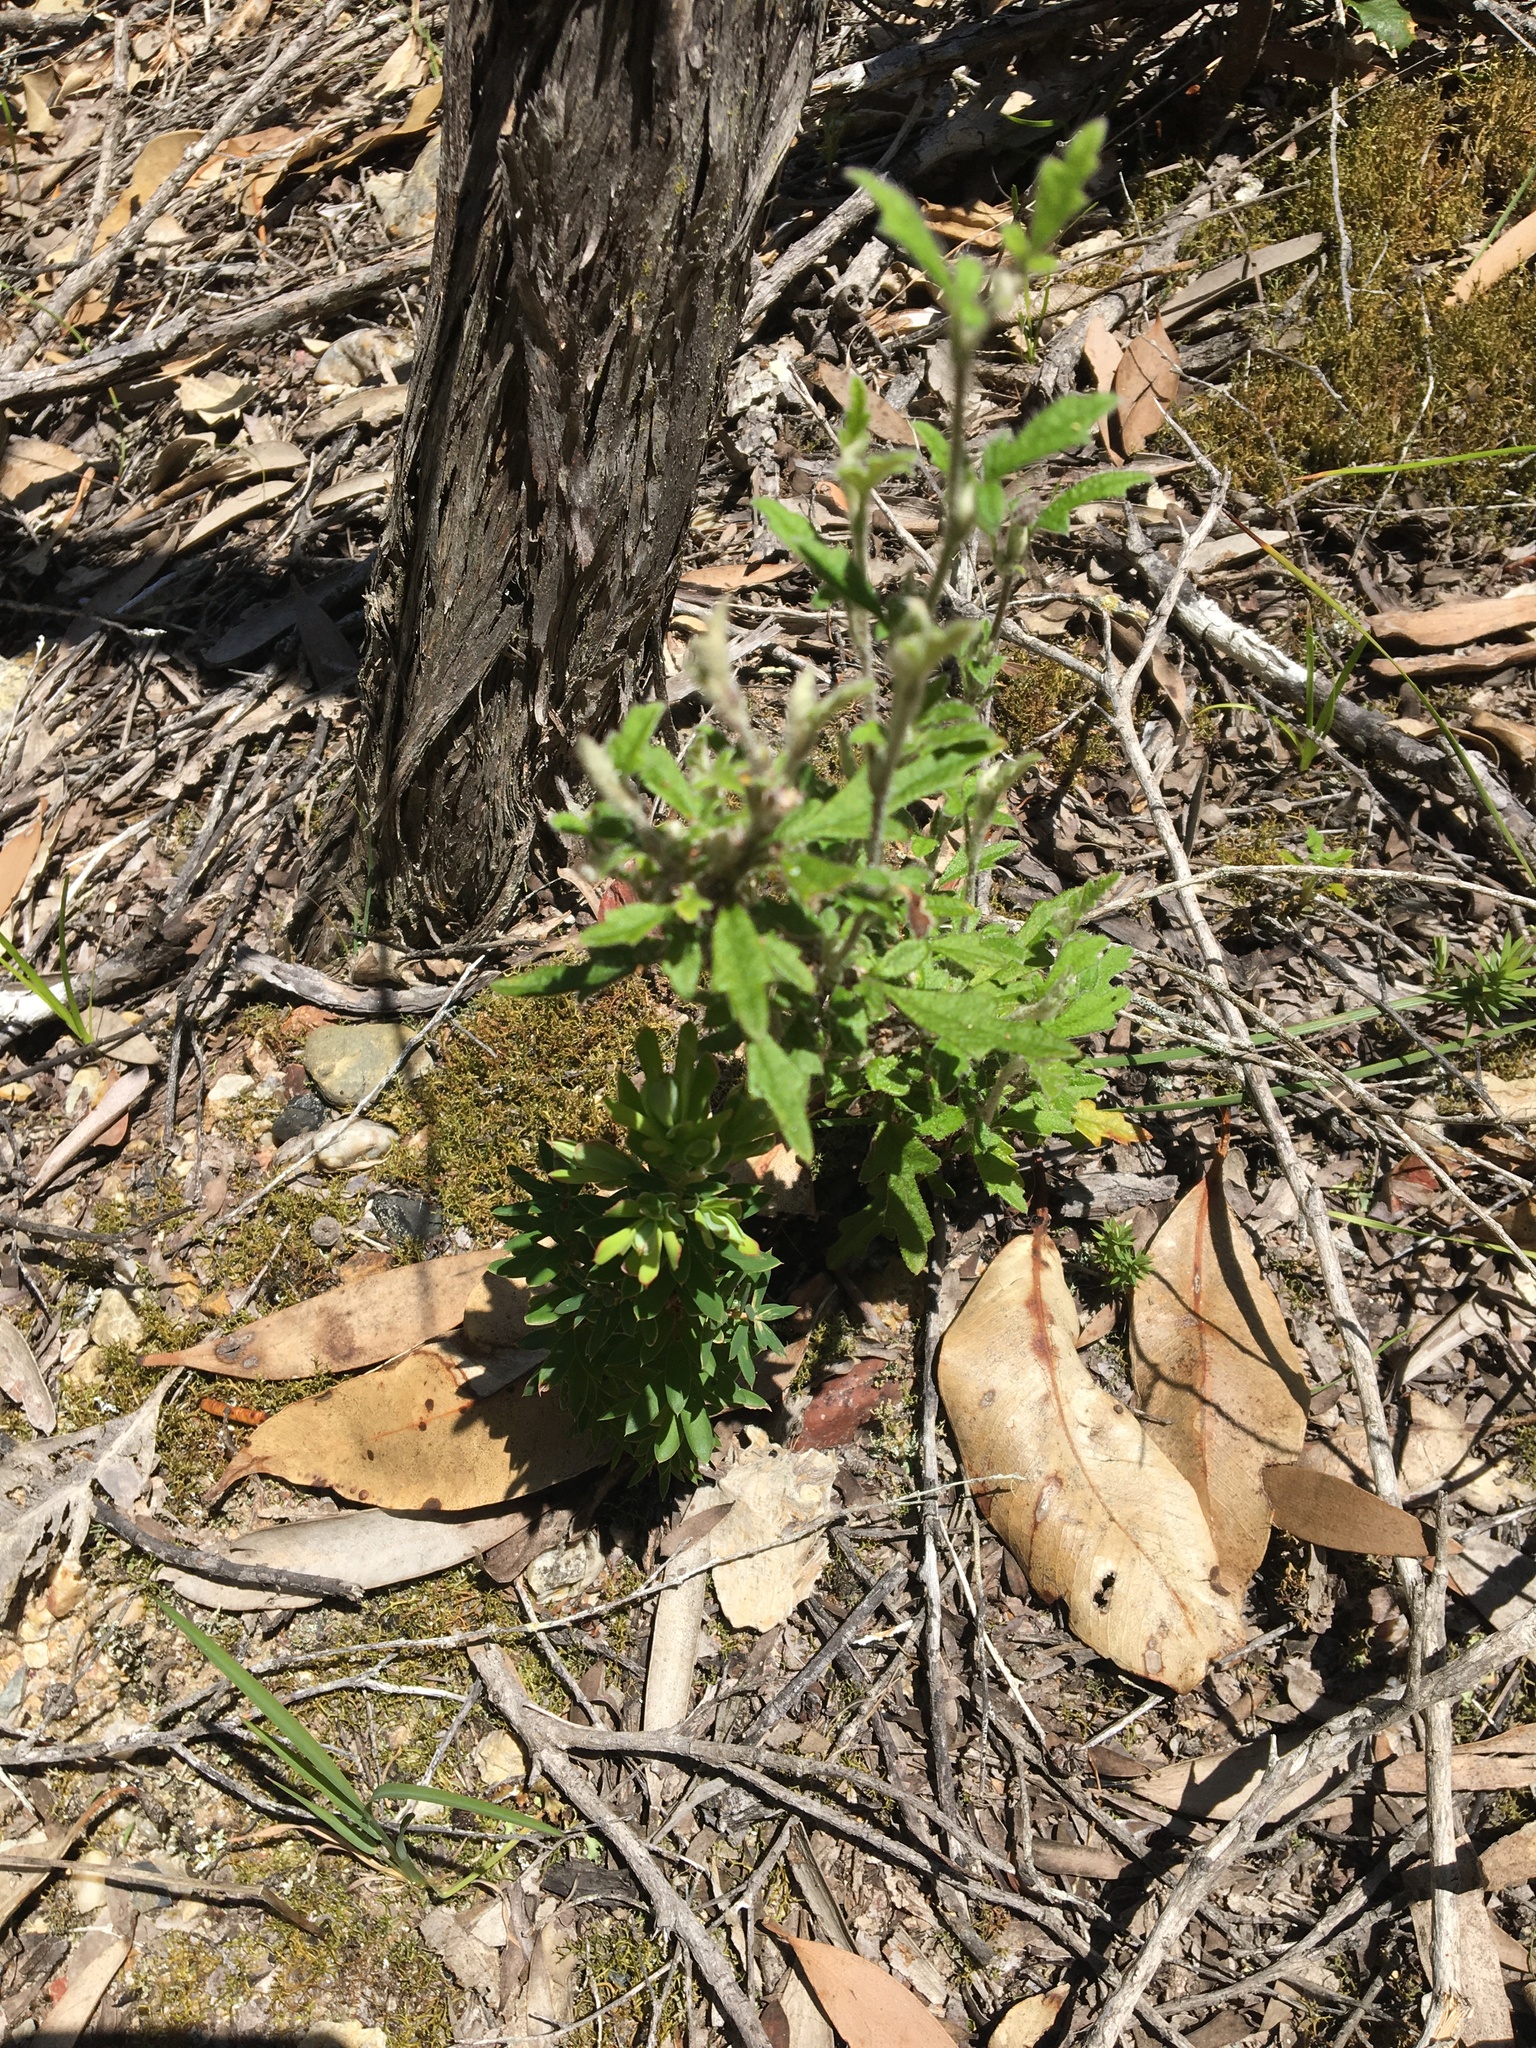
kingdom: Plantae
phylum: Tracheophyta
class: Magnoliopsida
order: Apiales
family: Apiaceae
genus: Xanthosia
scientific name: Xanthosia pilosa
